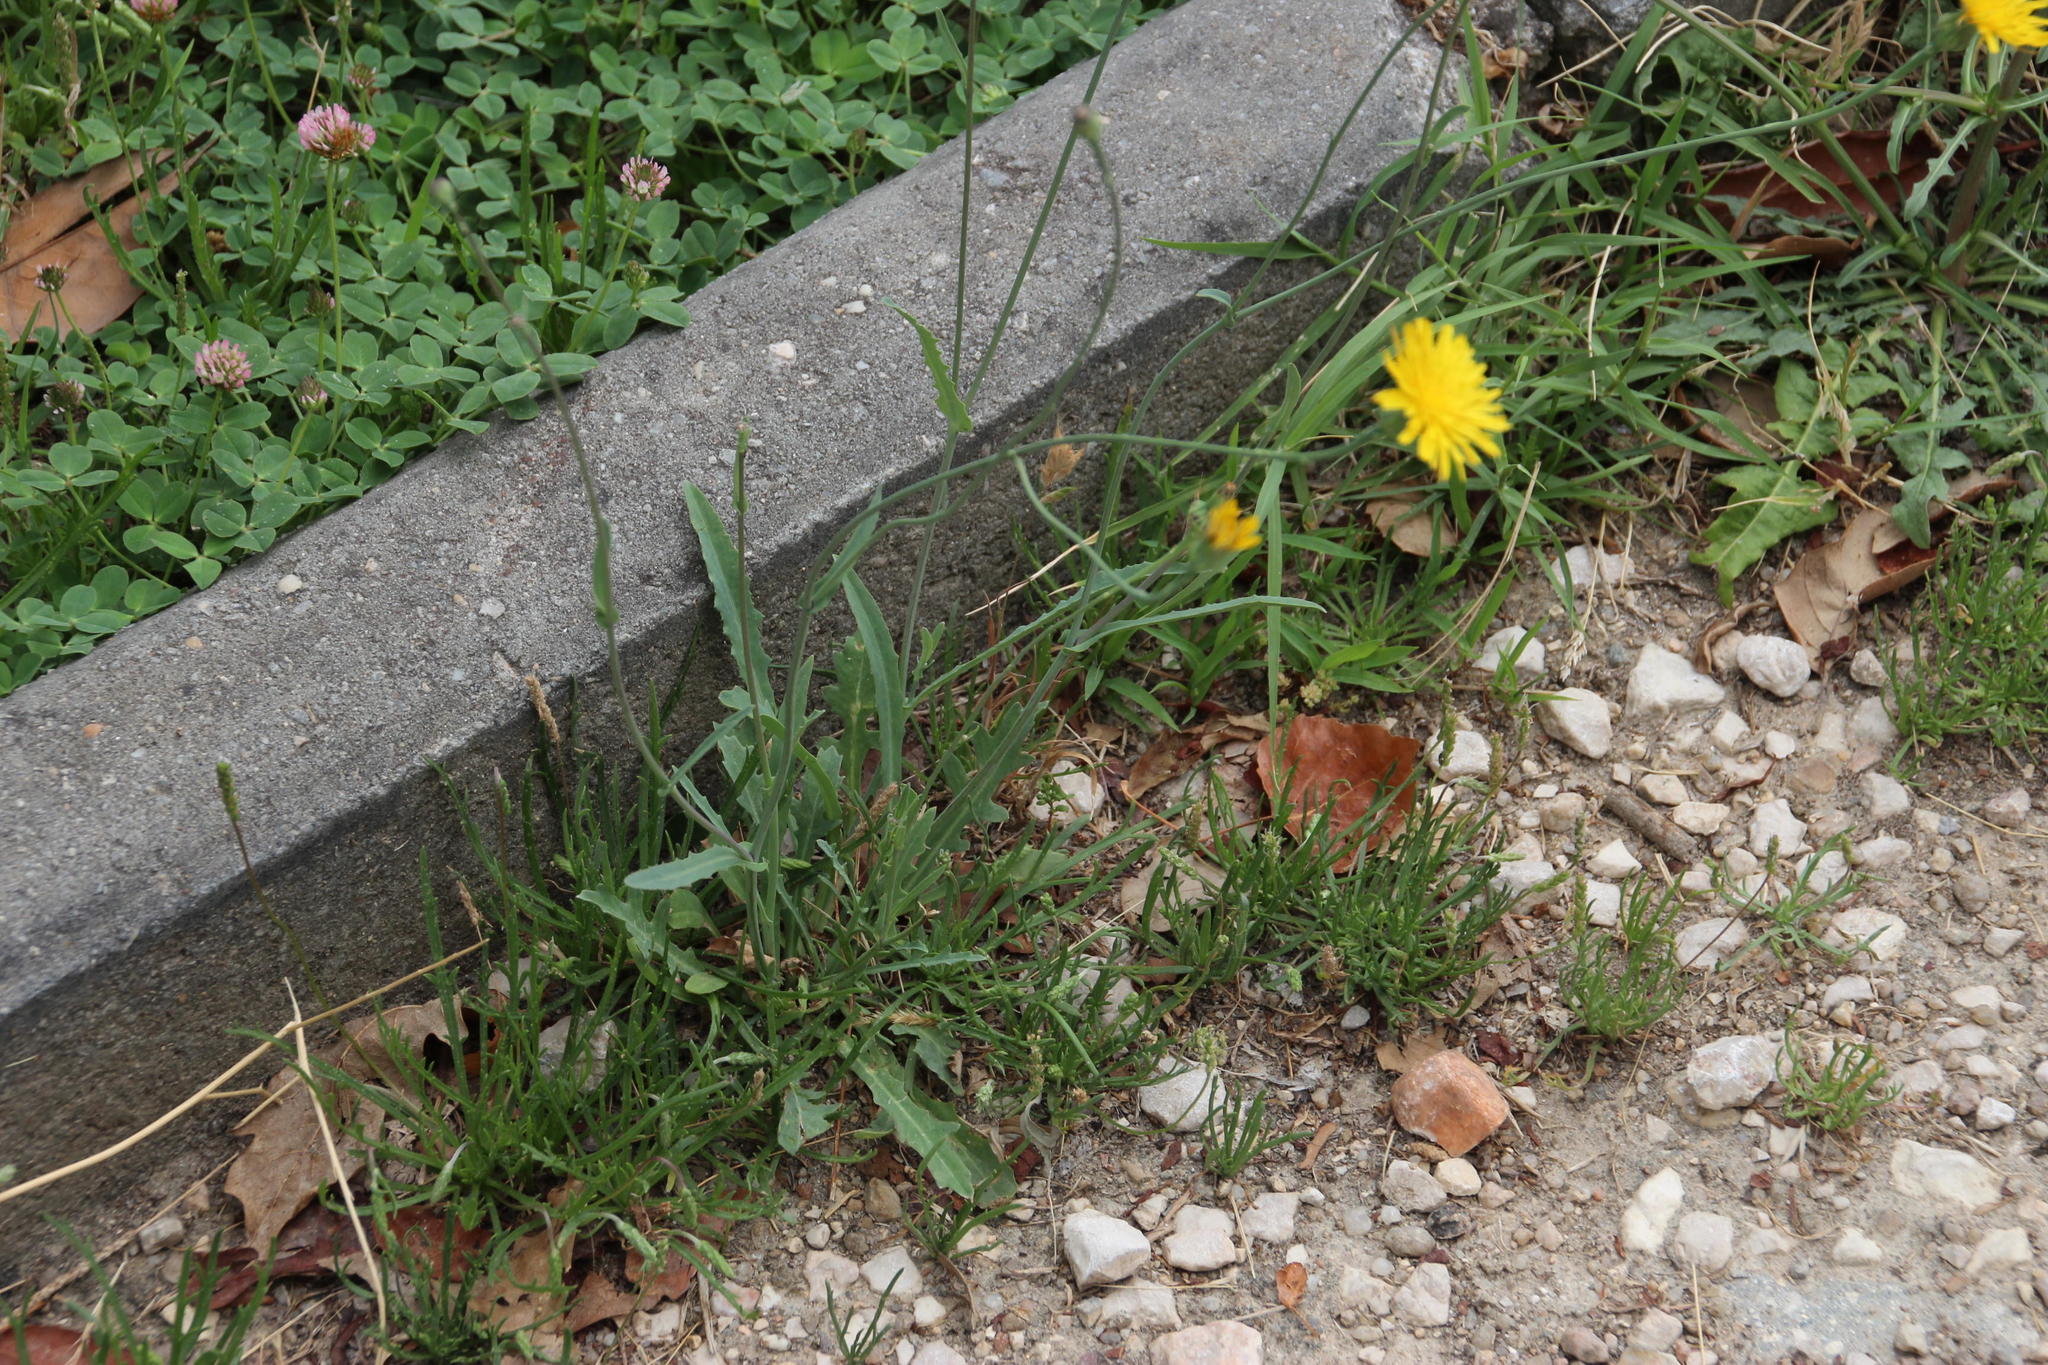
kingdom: Plantae
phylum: Tracheophyta
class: Magnoliopsida
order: Asterales
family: Asteraceae
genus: Reichardia
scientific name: Reichardia picroides
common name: Common brighteyes
